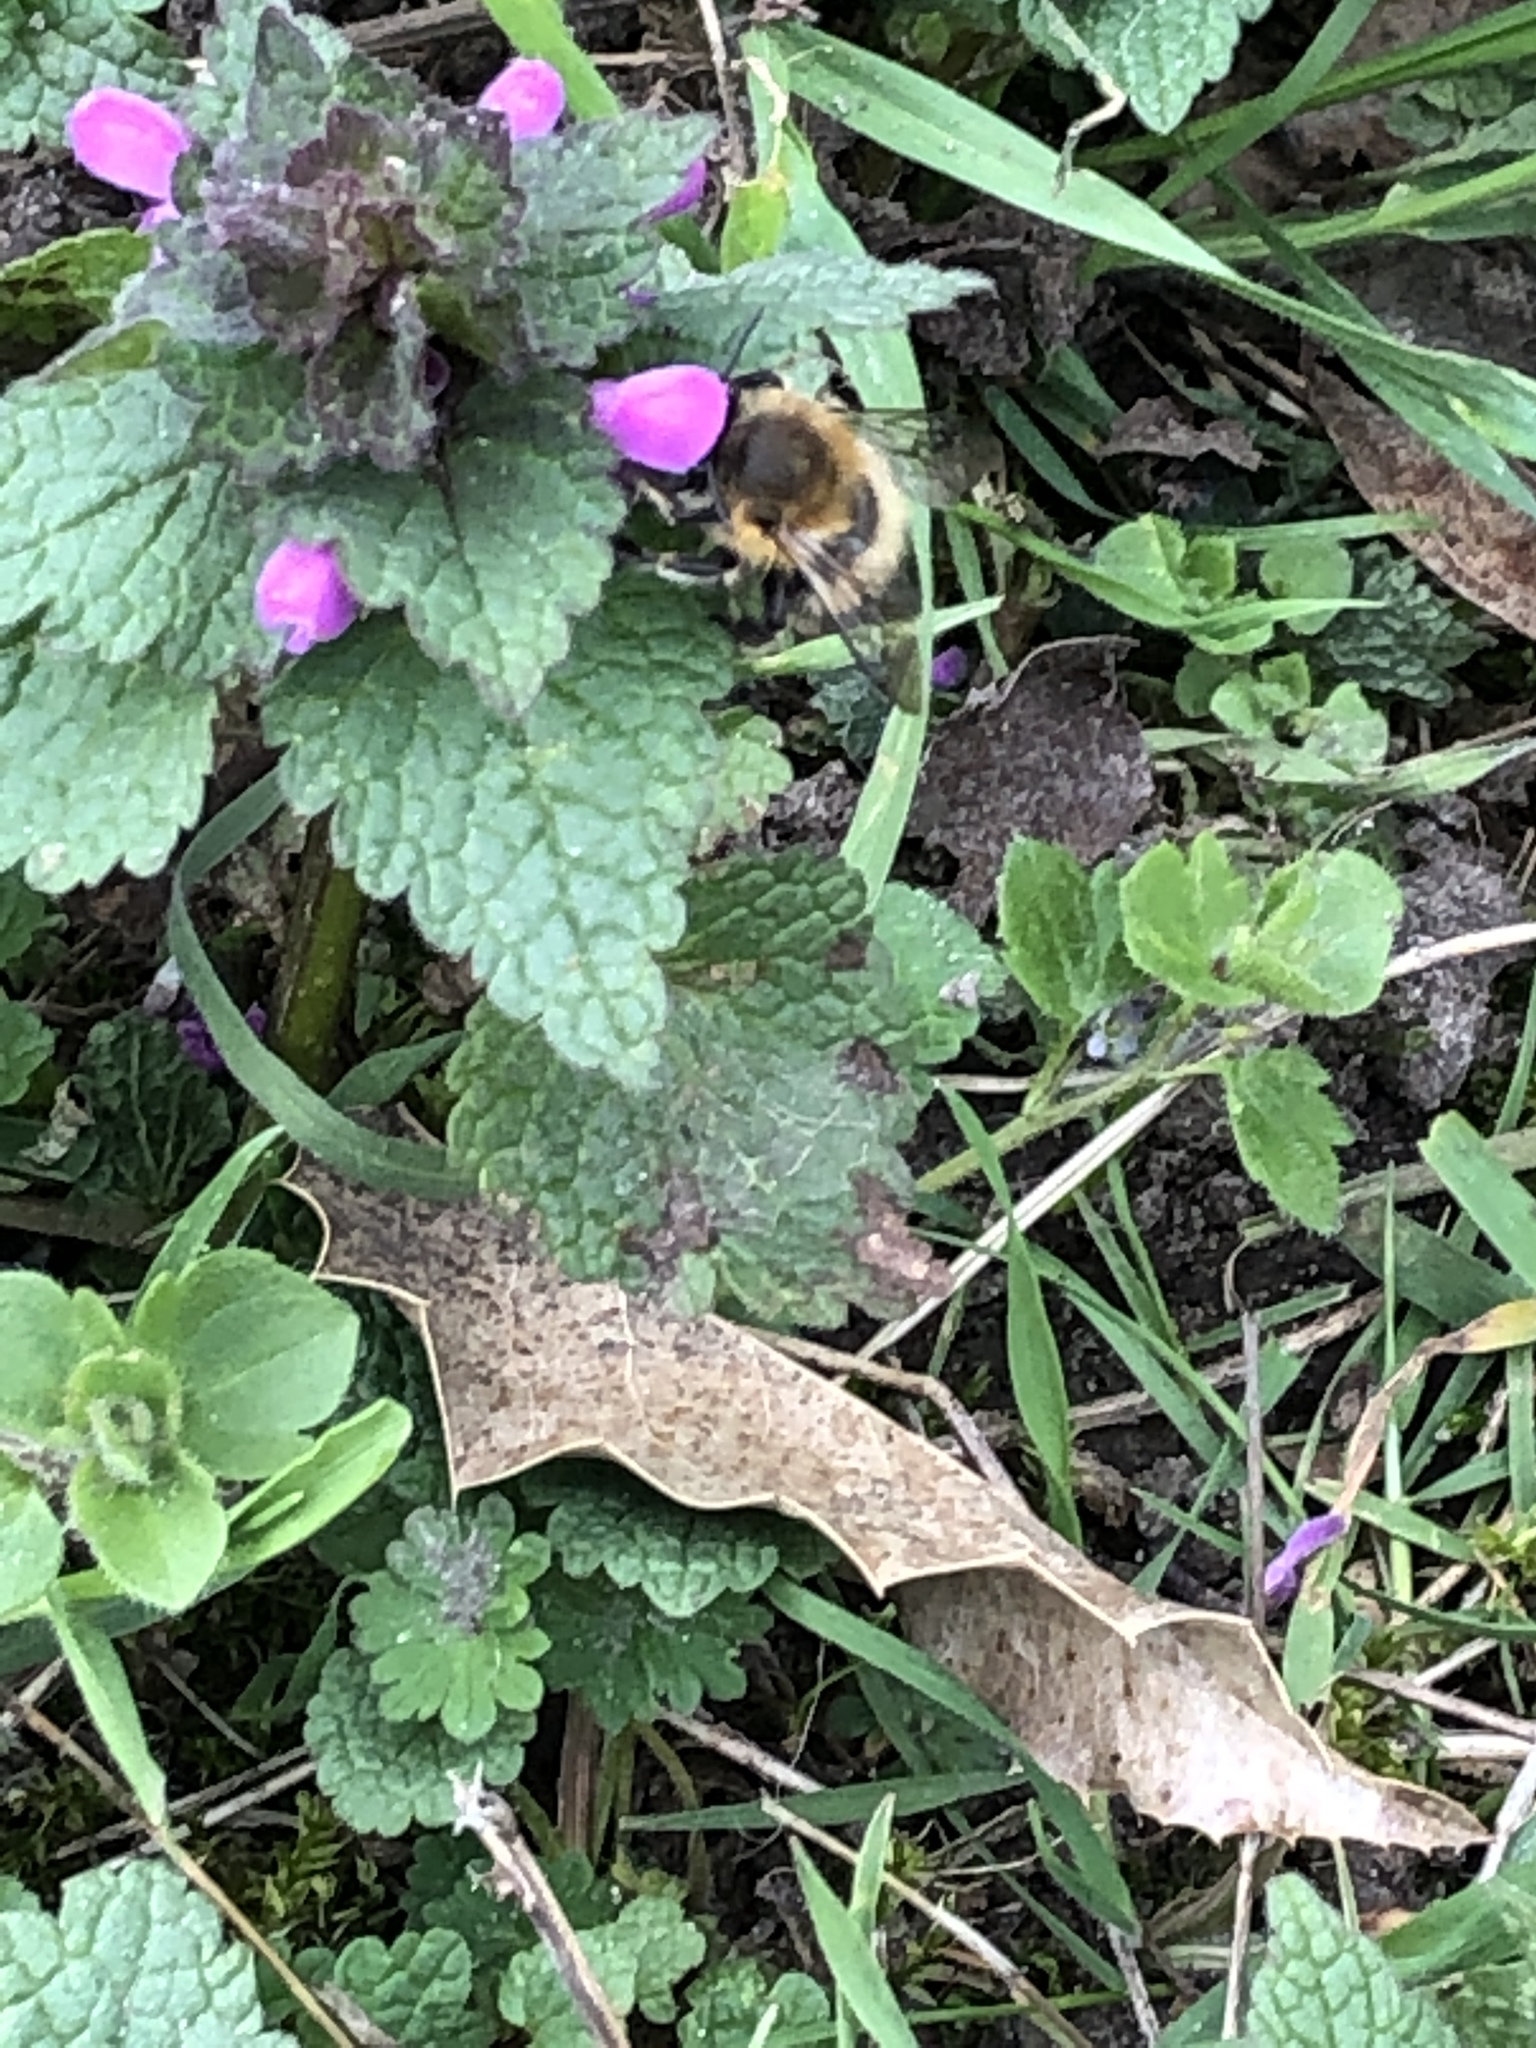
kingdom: Animalia
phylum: Arthropoda
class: Insecta
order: Hymenoptera
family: Apidae
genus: Anthophora
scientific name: Anthophora plumipes
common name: Hairy-footed flower bee
